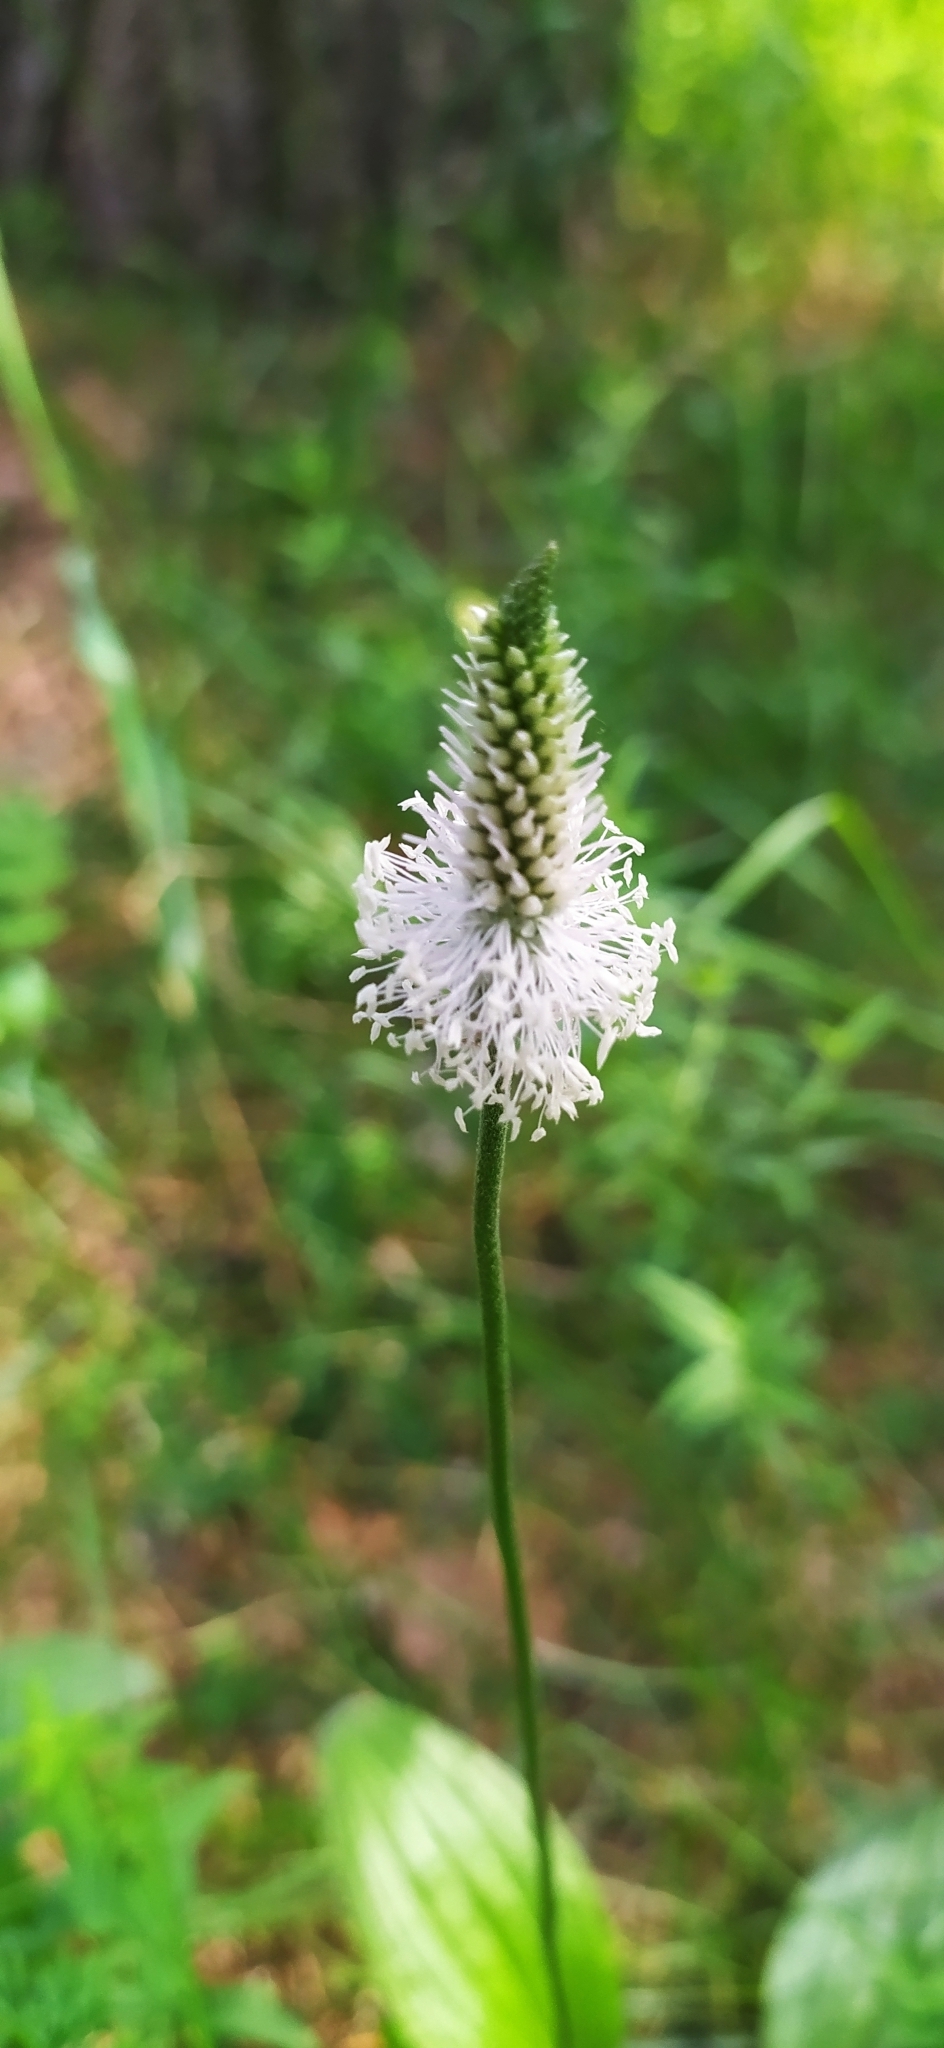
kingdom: Plantae
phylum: Tracheophyta
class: Magnoliopsida
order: Lamiales
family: Plantaginaceae
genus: Plantago
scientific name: Plantago media
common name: Hoary plantain
